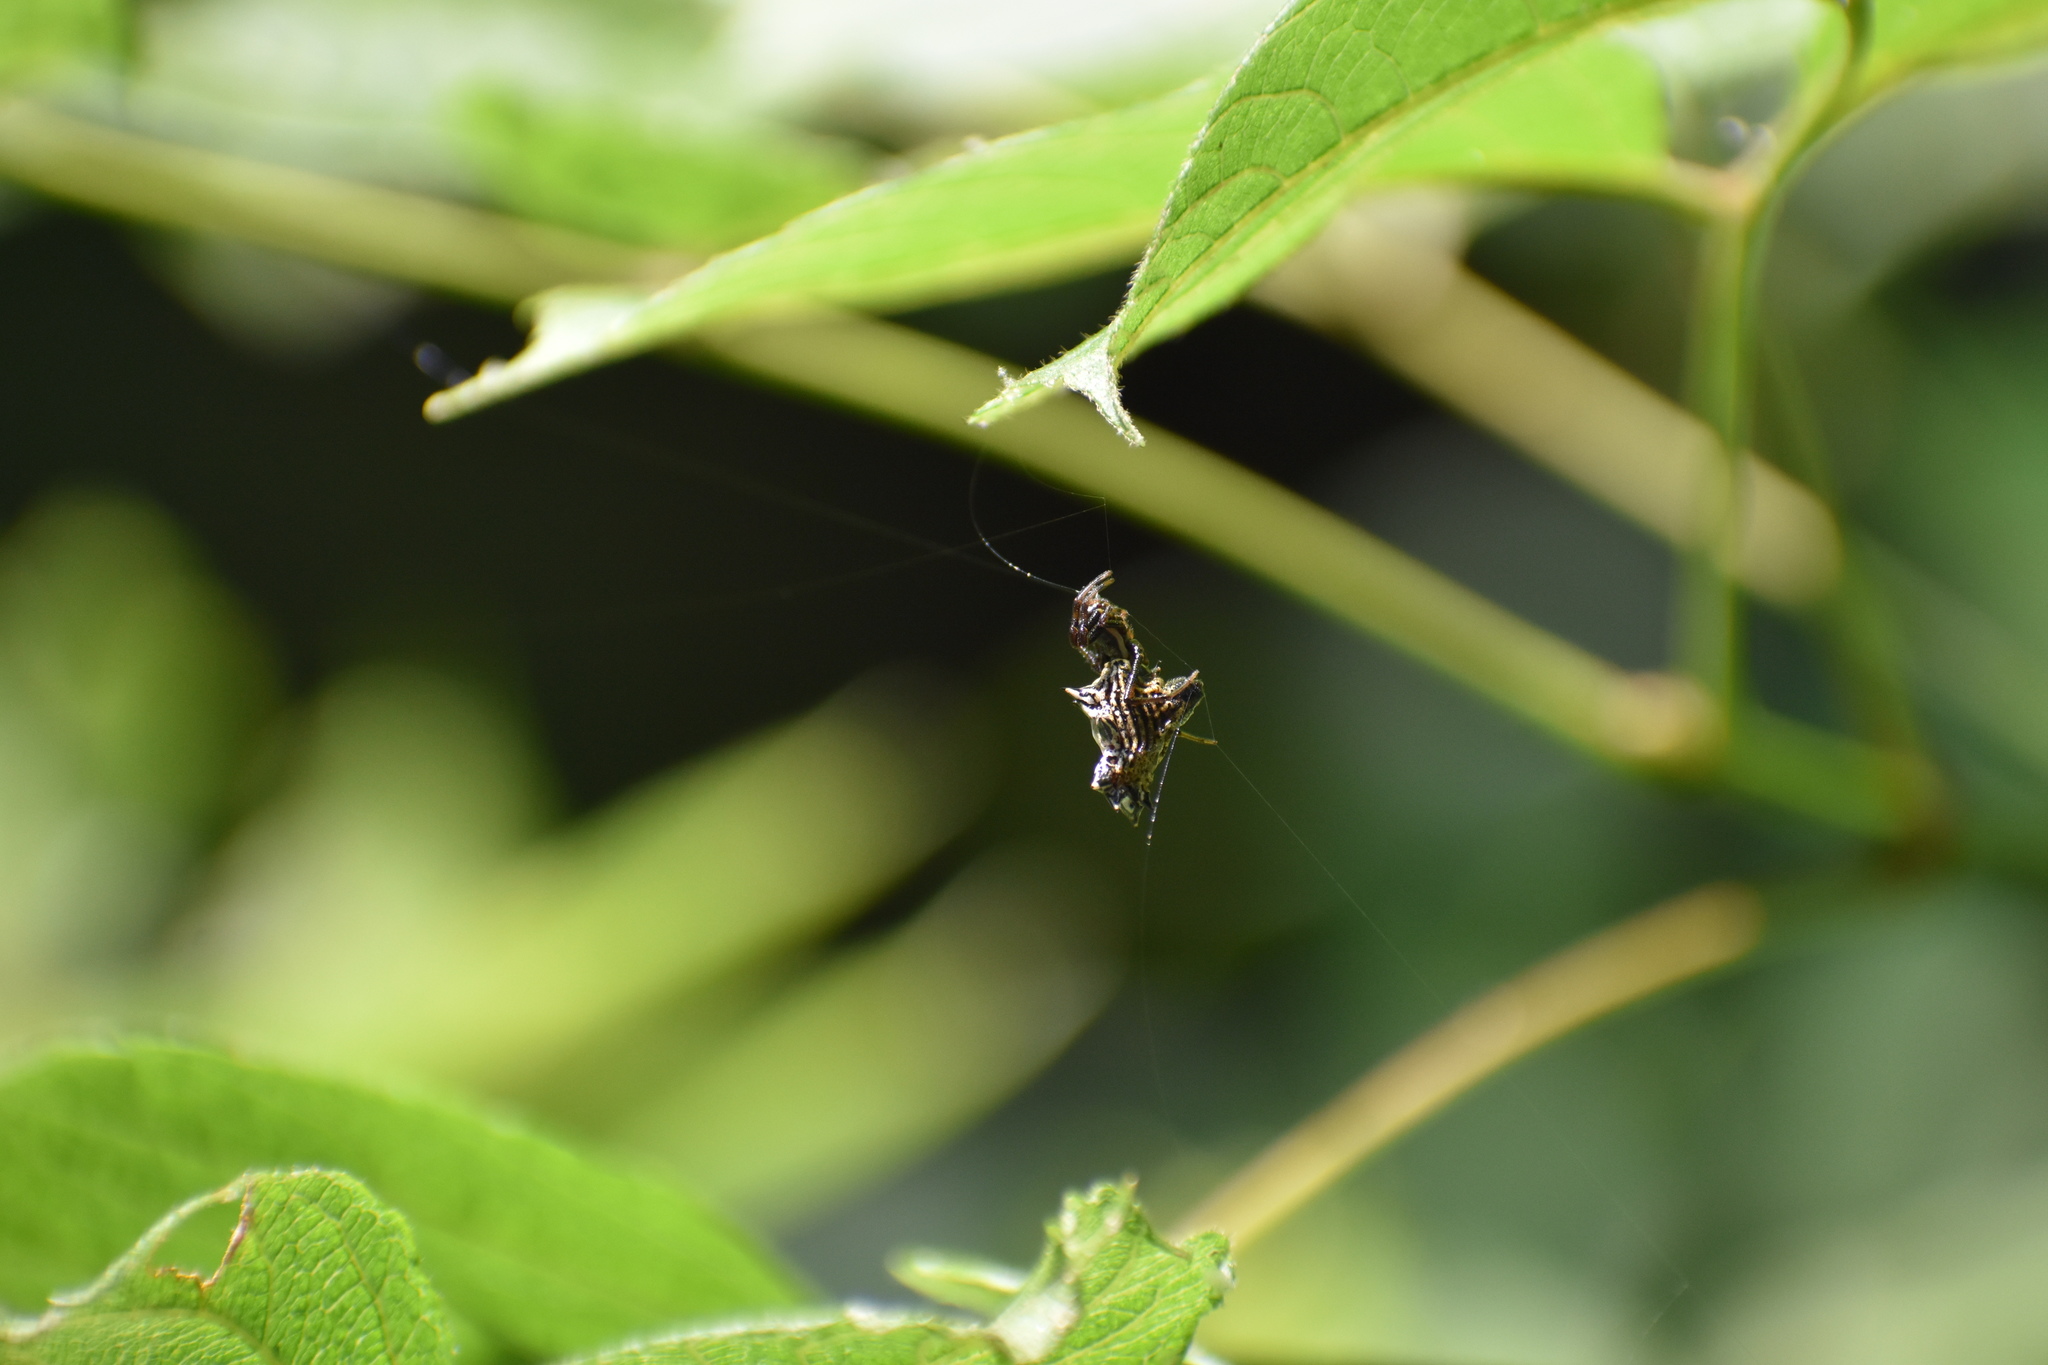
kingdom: Animalia
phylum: Arthropoda
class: Arachnida
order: Araneae
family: Araneidae
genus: Micrathena
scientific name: Micrathena gracilis
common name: Orb weavers
